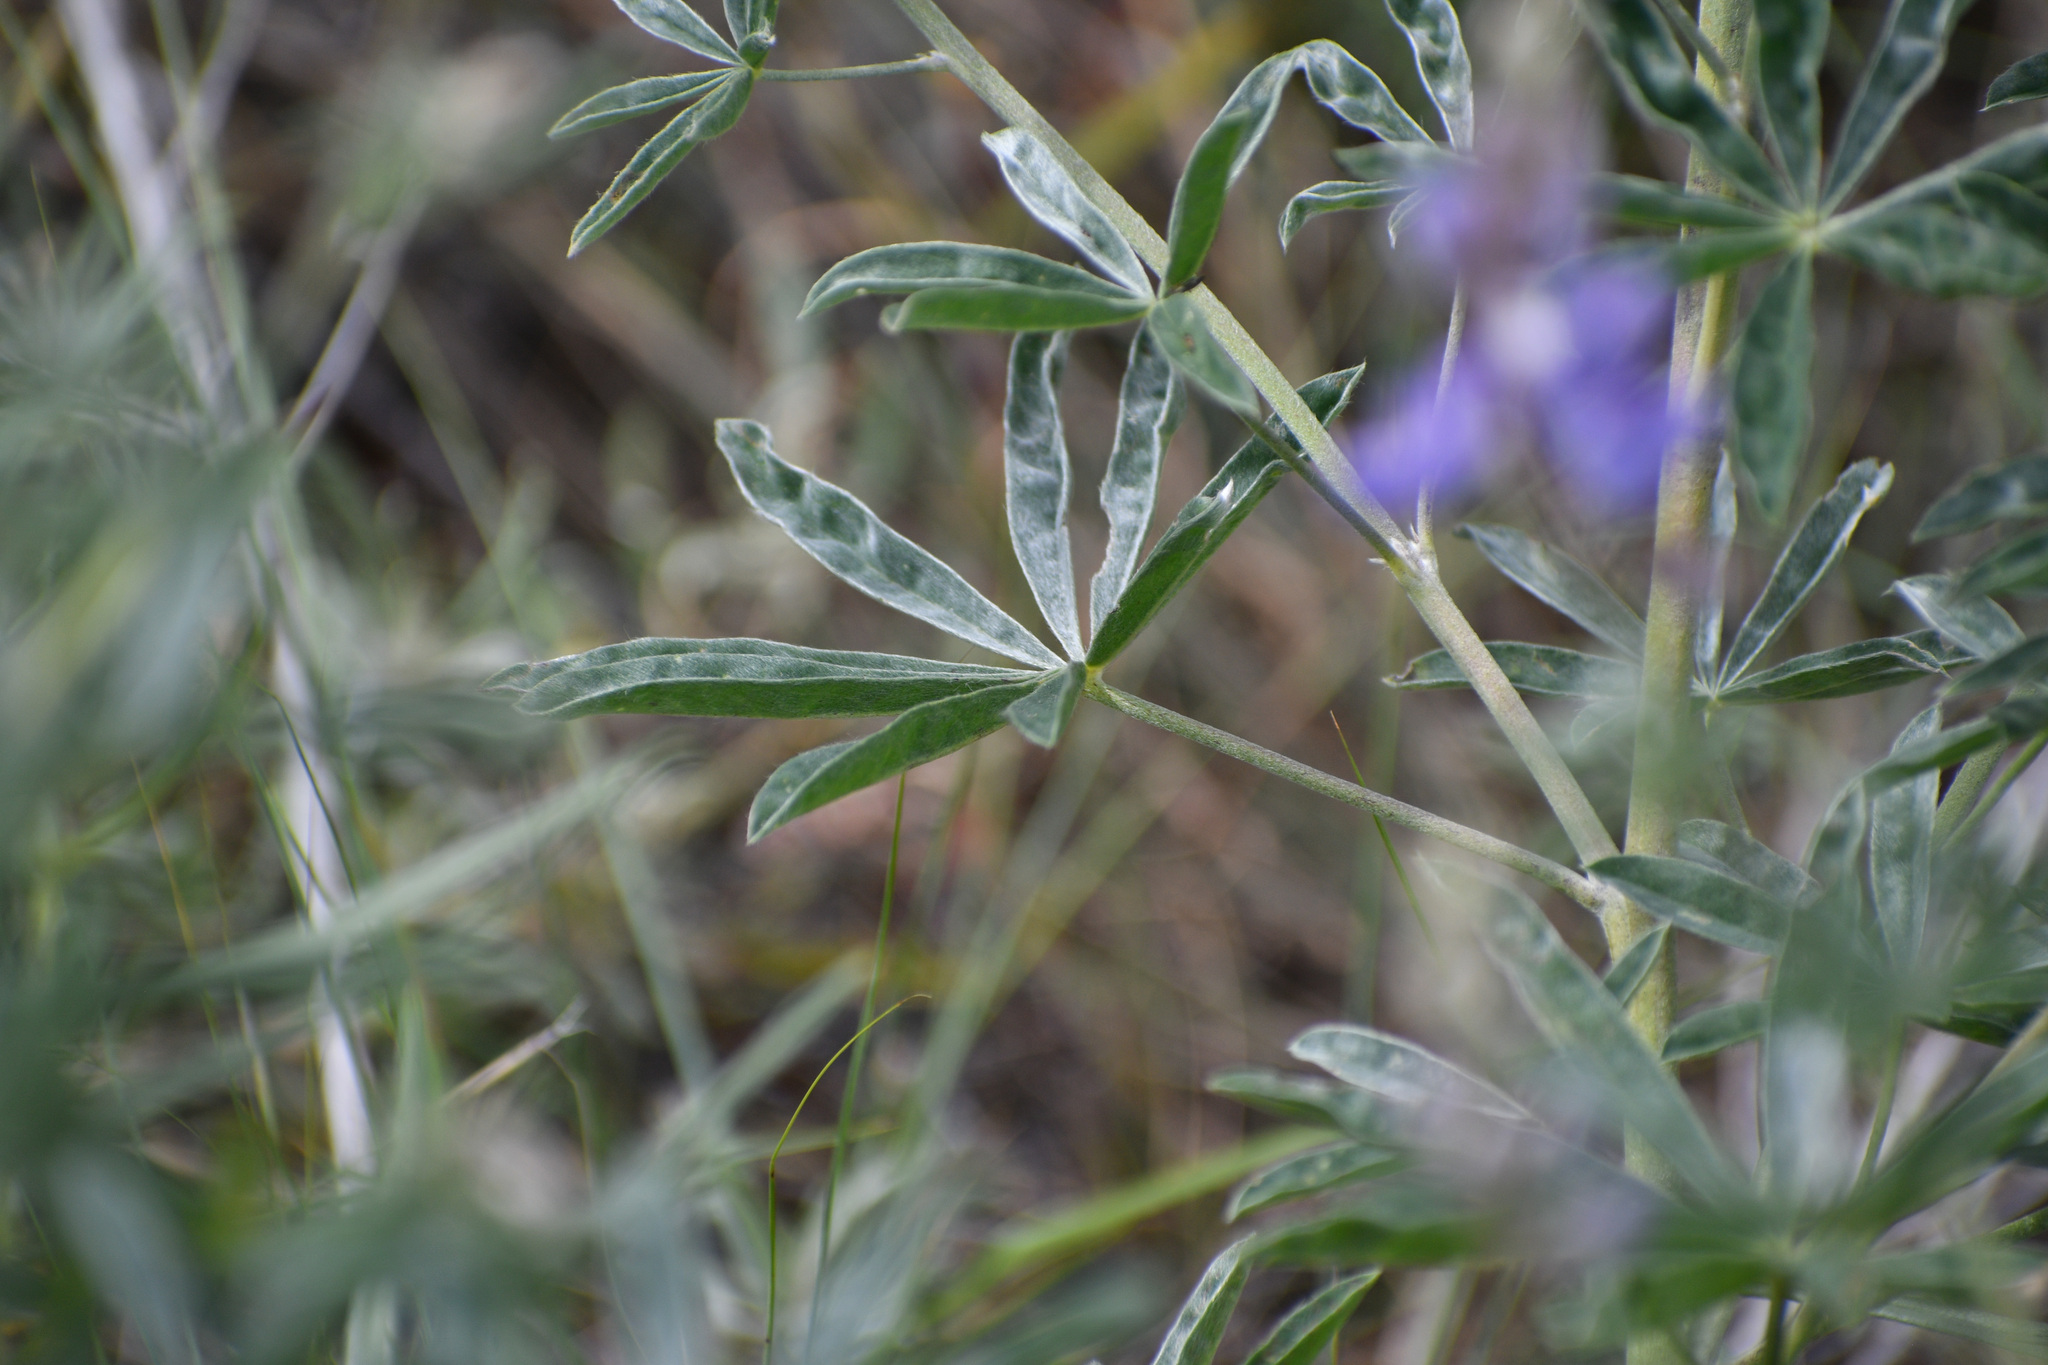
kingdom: Plantae
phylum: Tracheophyta
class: Magnoliopsida
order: Fabales
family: Fabaceae
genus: Lupinus
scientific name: Lupinus sericeus
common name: Silky lupine
